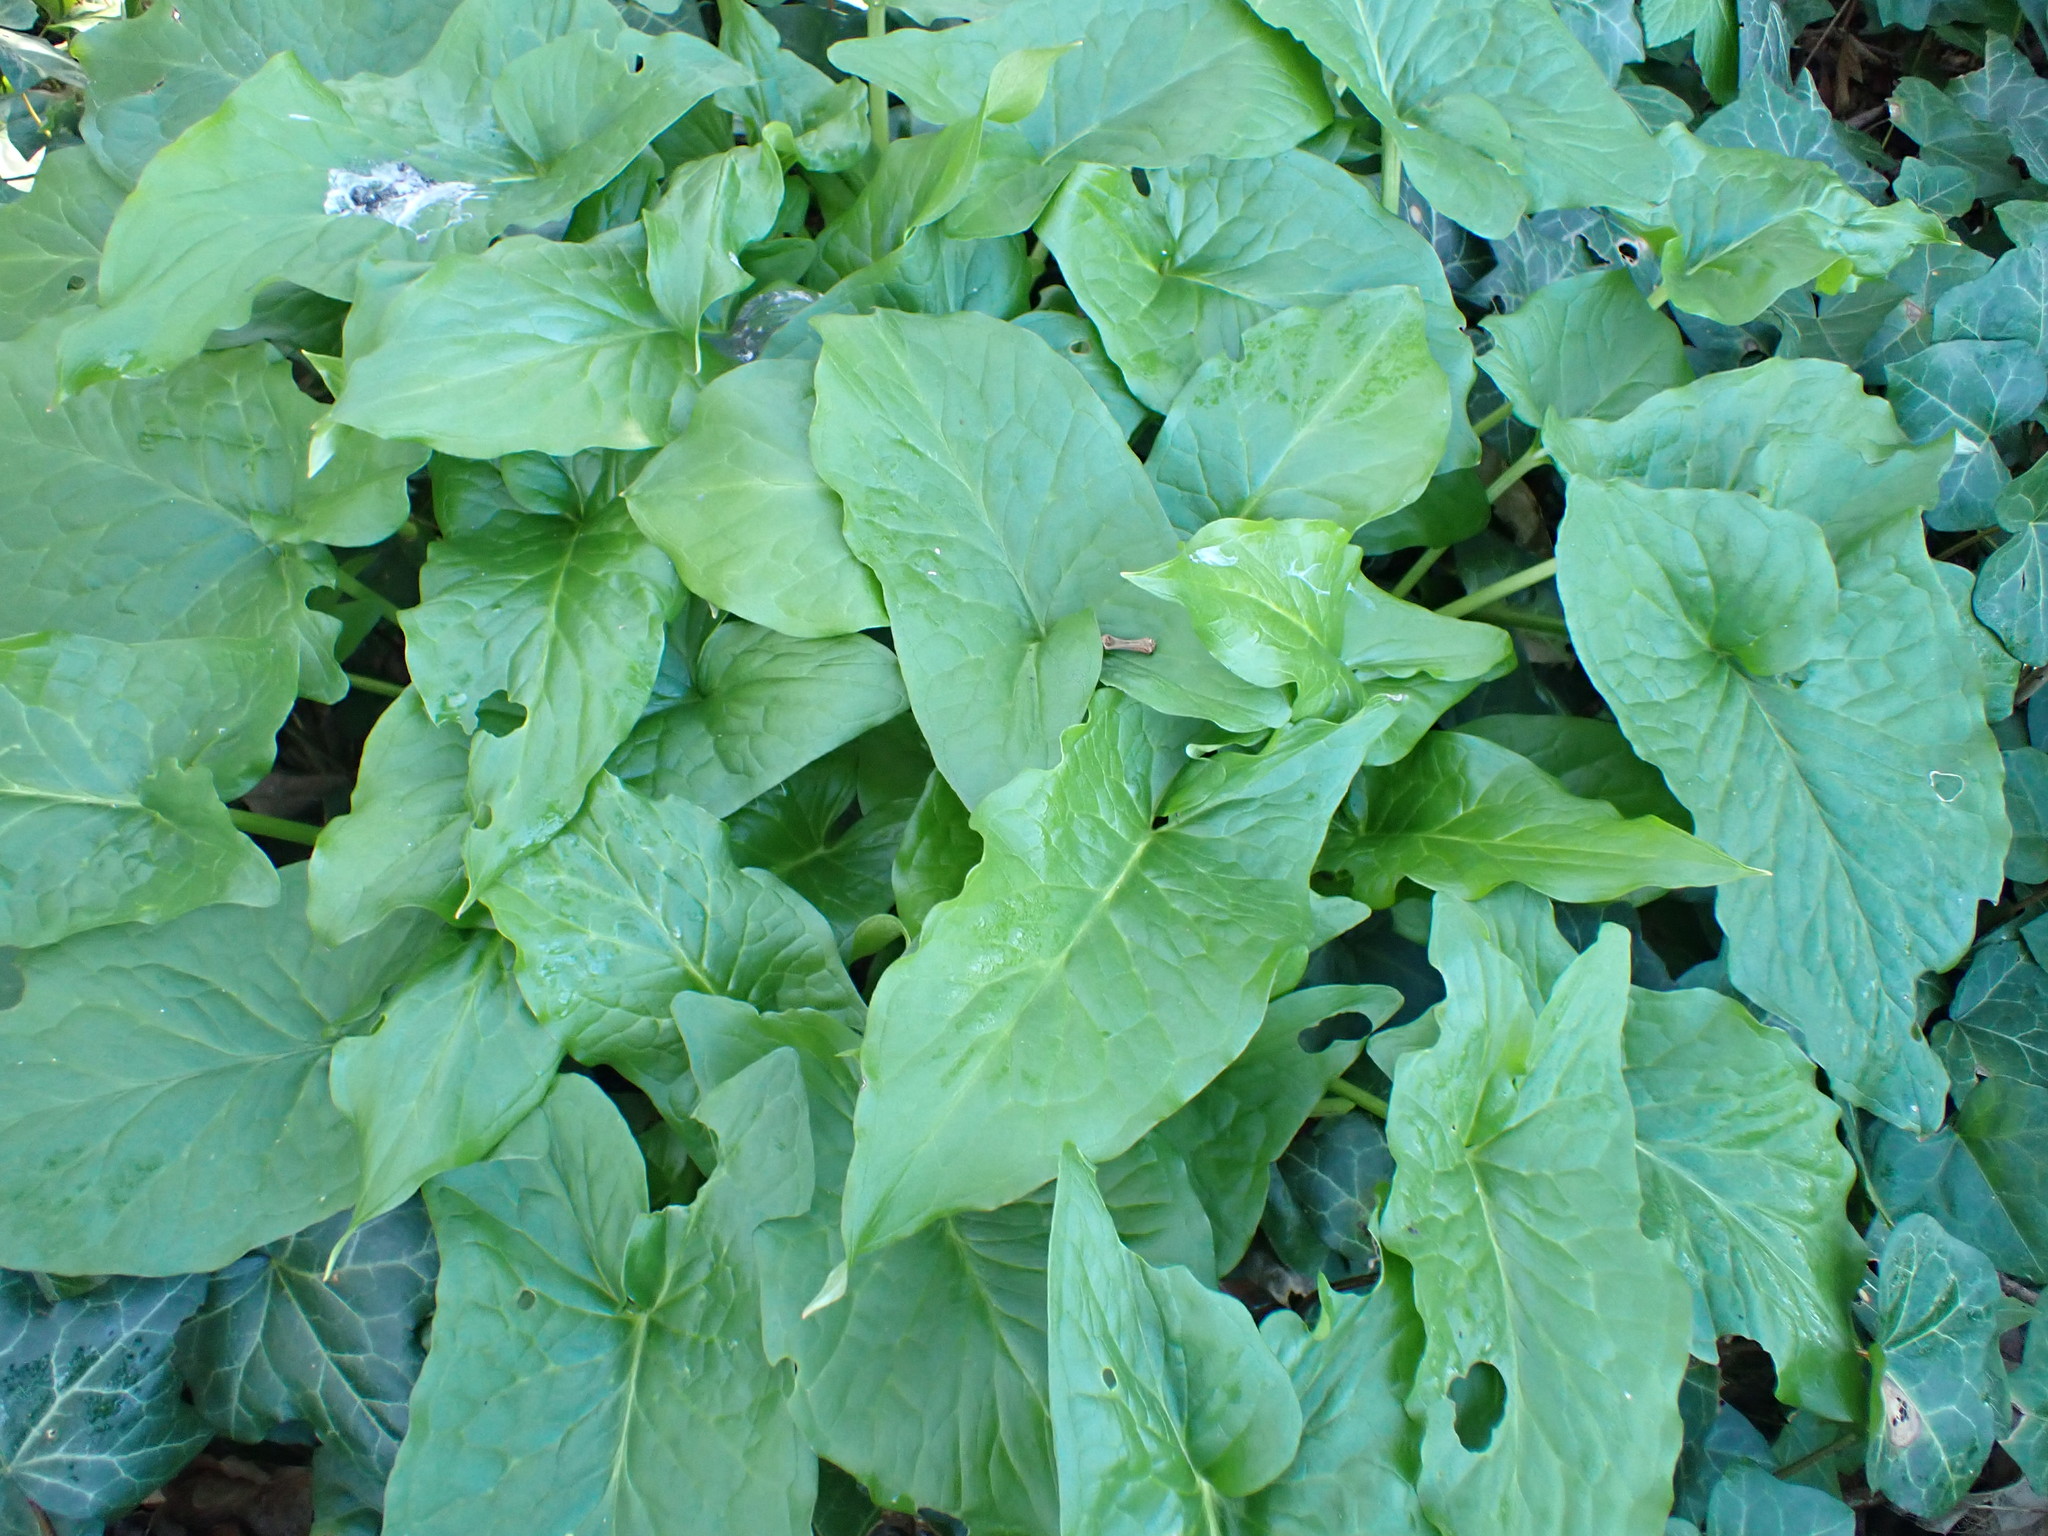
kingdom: Plantae
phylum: Tracheophyta
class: Liliopsida
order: Alismatales
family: Araceae
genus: Arum
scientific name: Arum maculatum
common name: Lords-and-ladies
